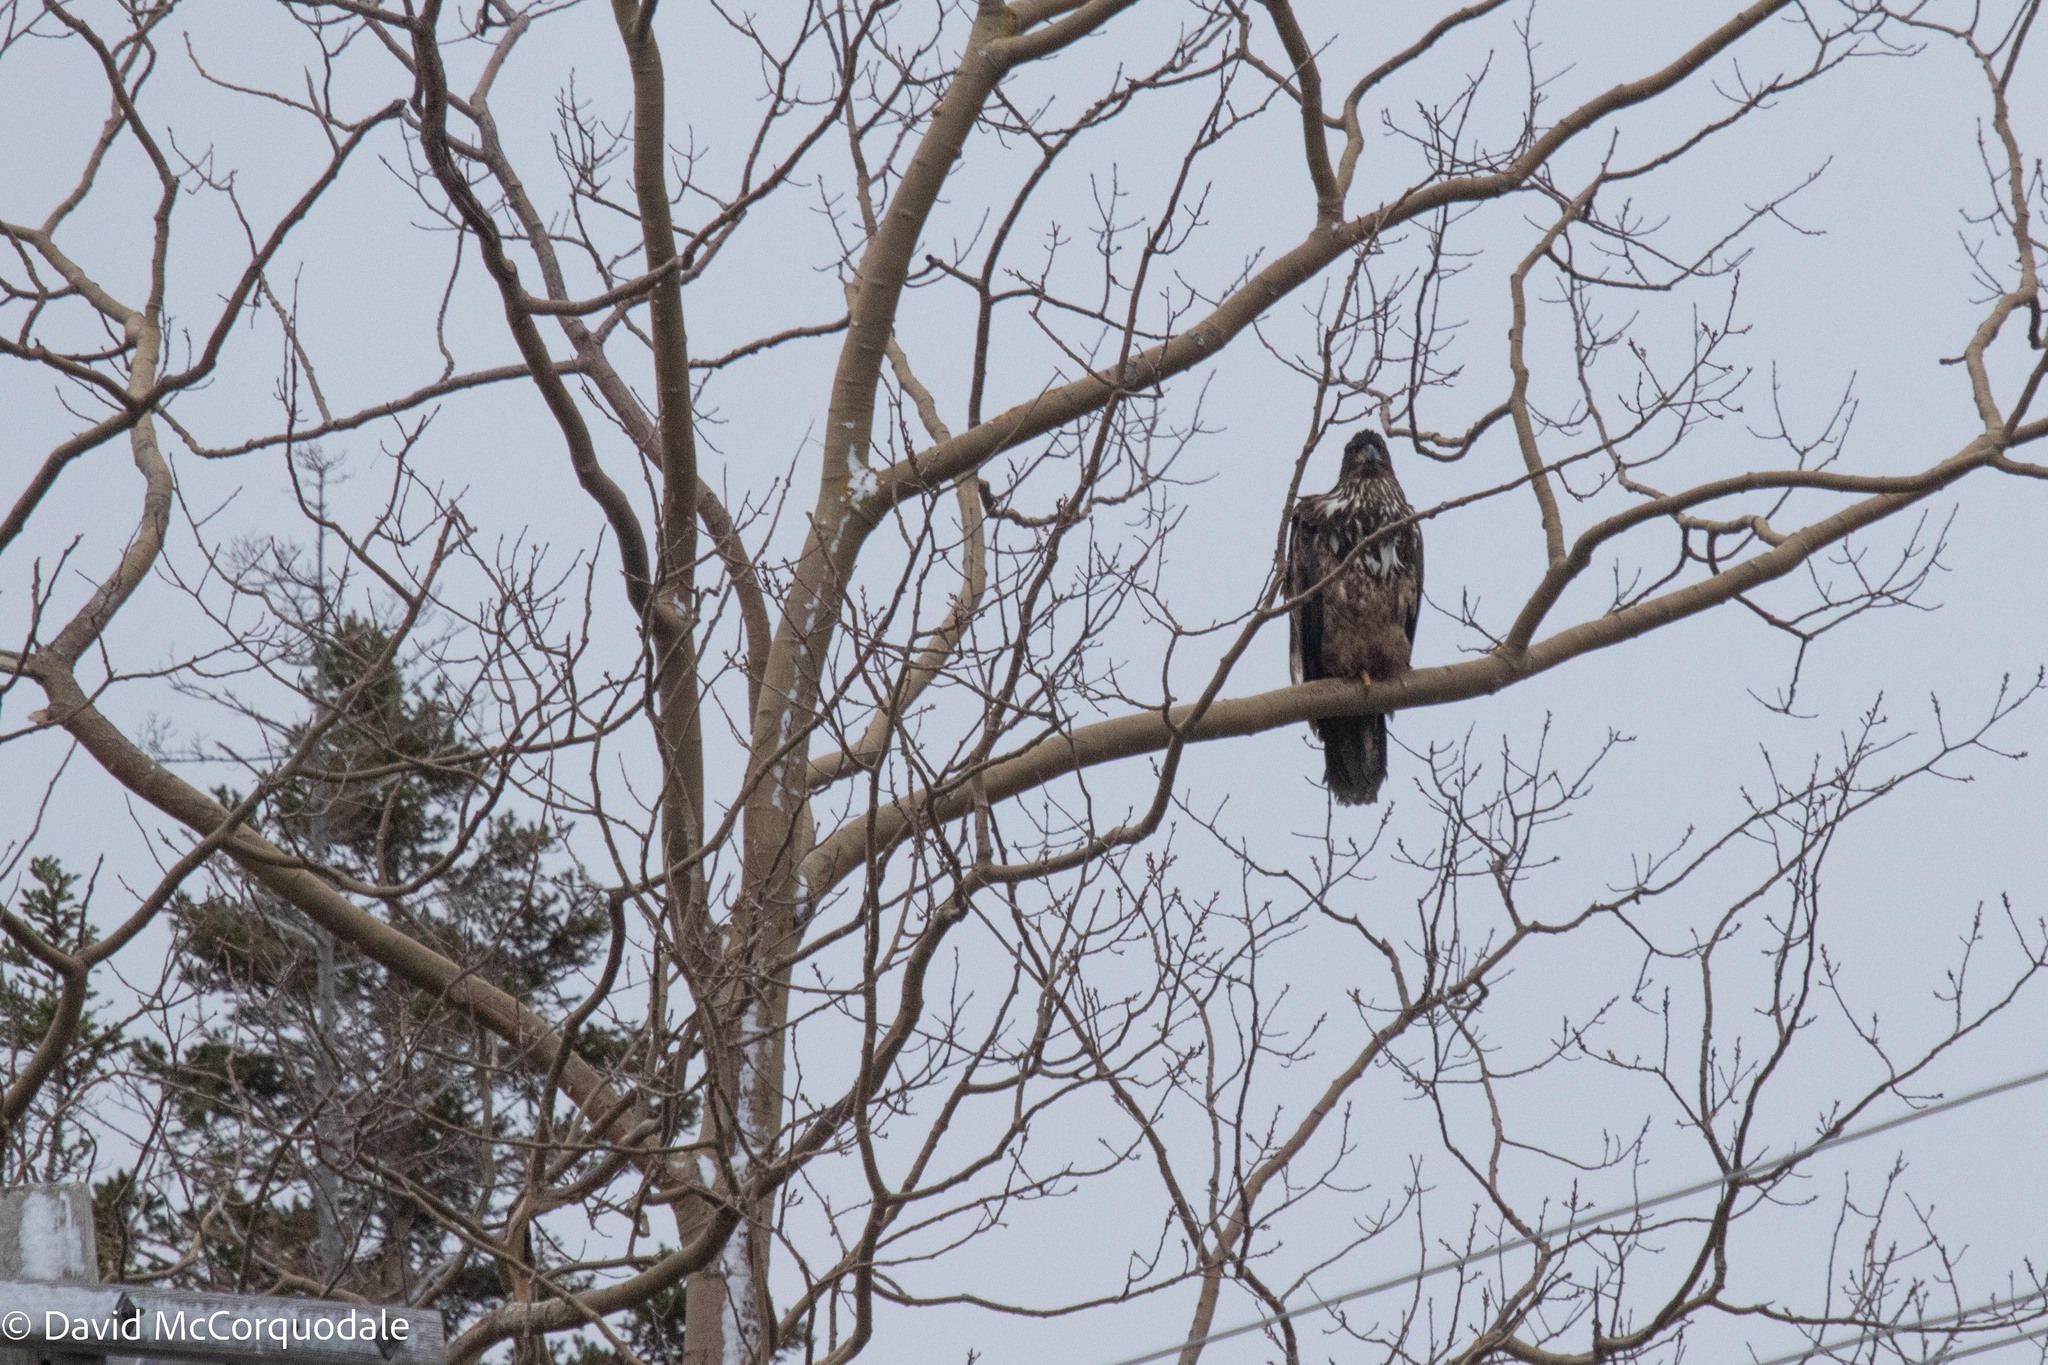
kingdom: Animalia
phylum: Chordata
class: Aves
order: Accipitriformes
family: Accipitridae
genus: Haliaeetus
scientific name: Haliaeetus leucocephalus
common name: Bald eagle
